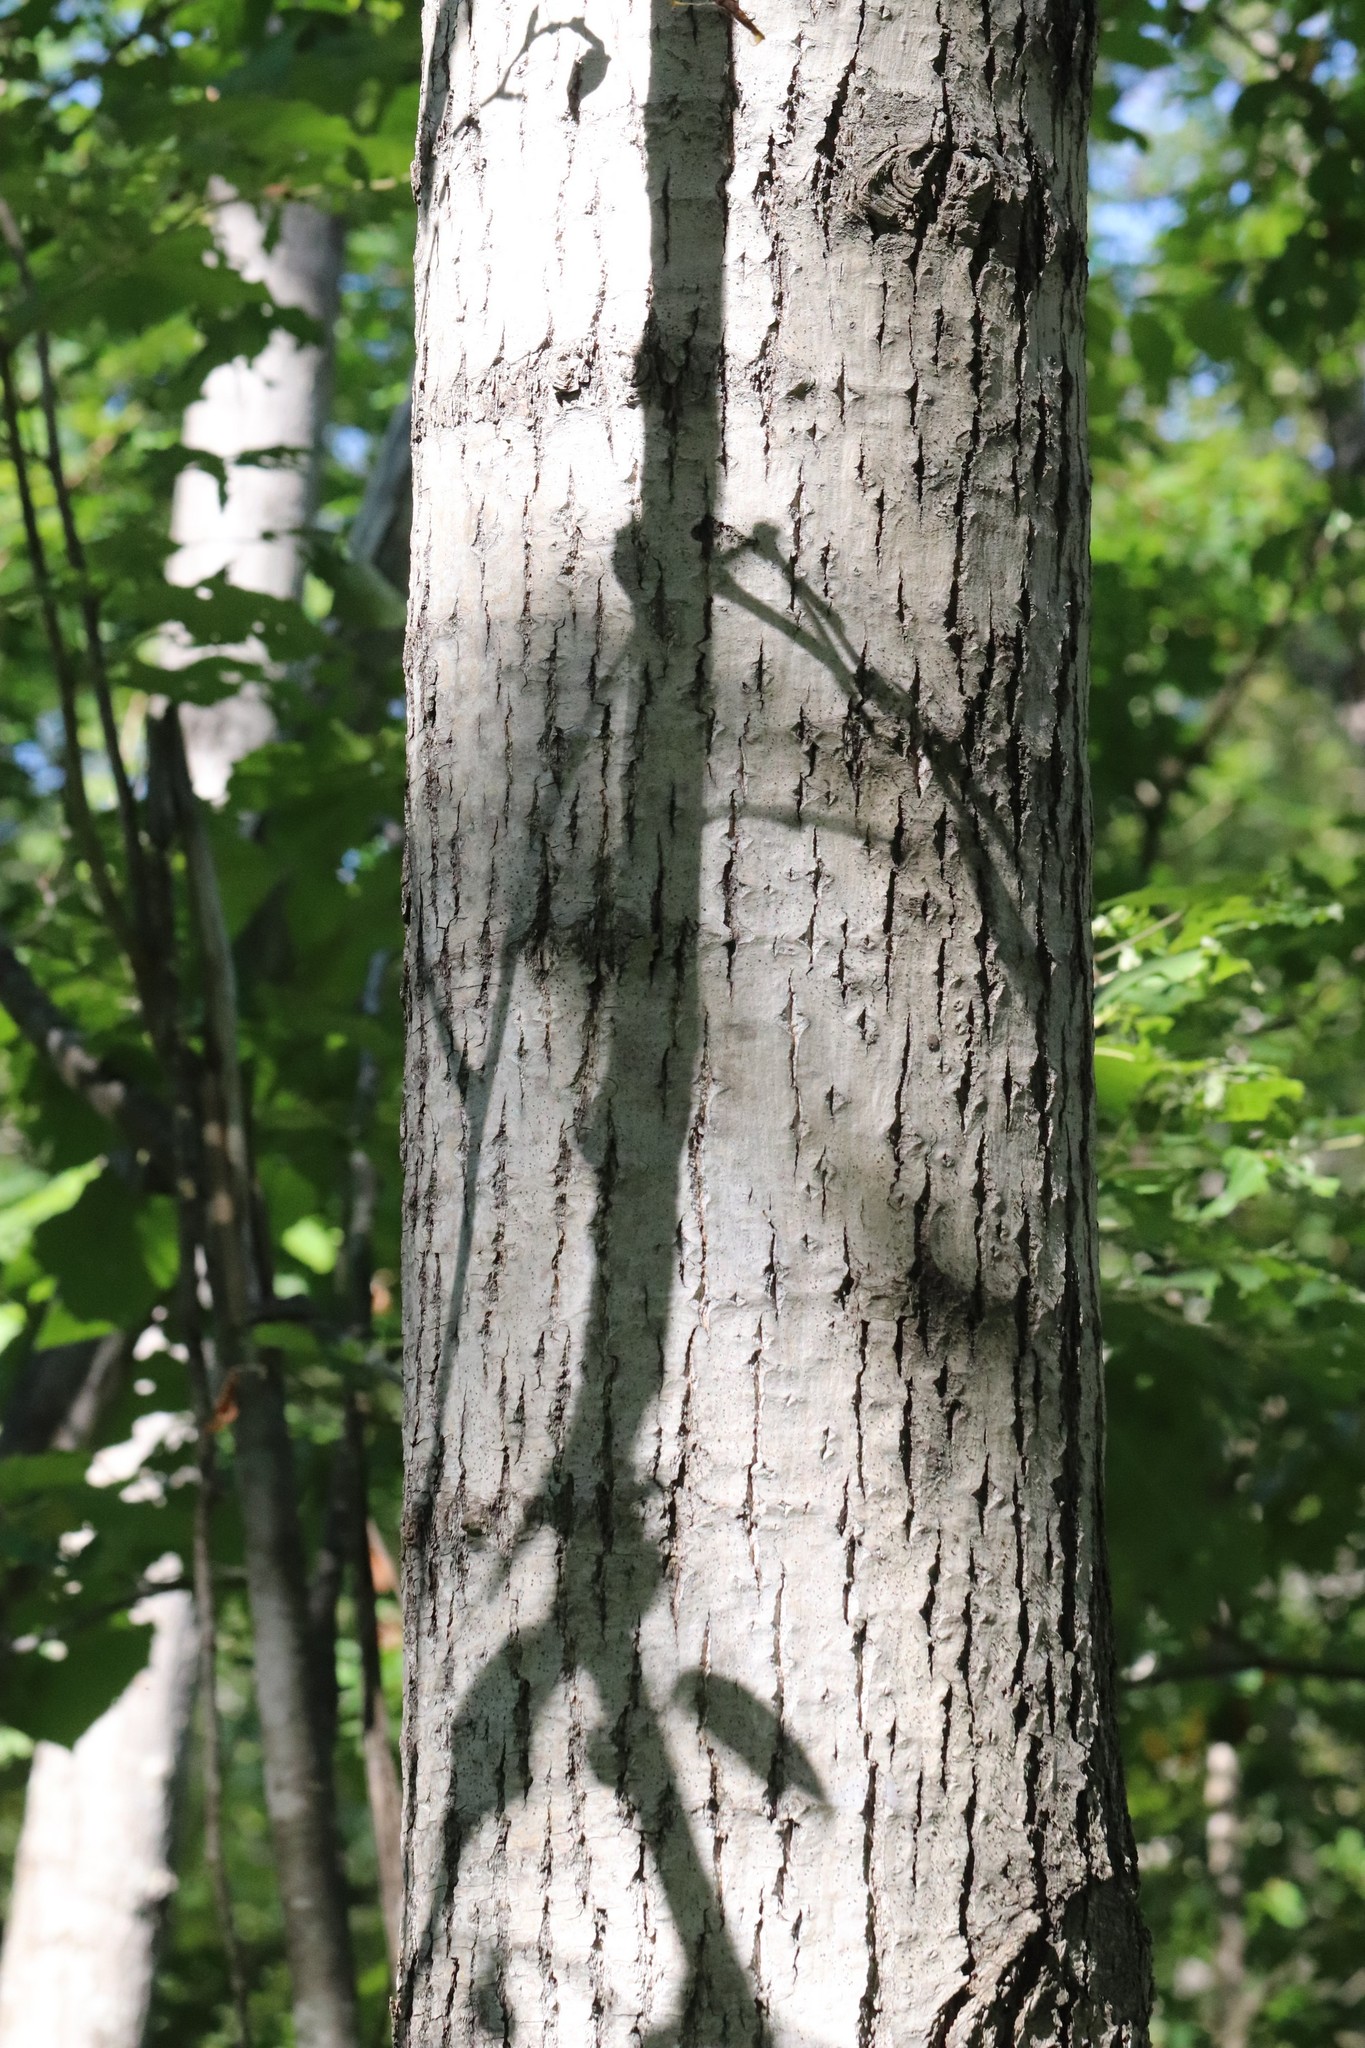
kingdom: Plantae
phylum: Tracheophyta
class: Magnoliopsida
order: Malpighiales
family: Salicaceae
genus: Populus
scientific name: Populus suaveolens
